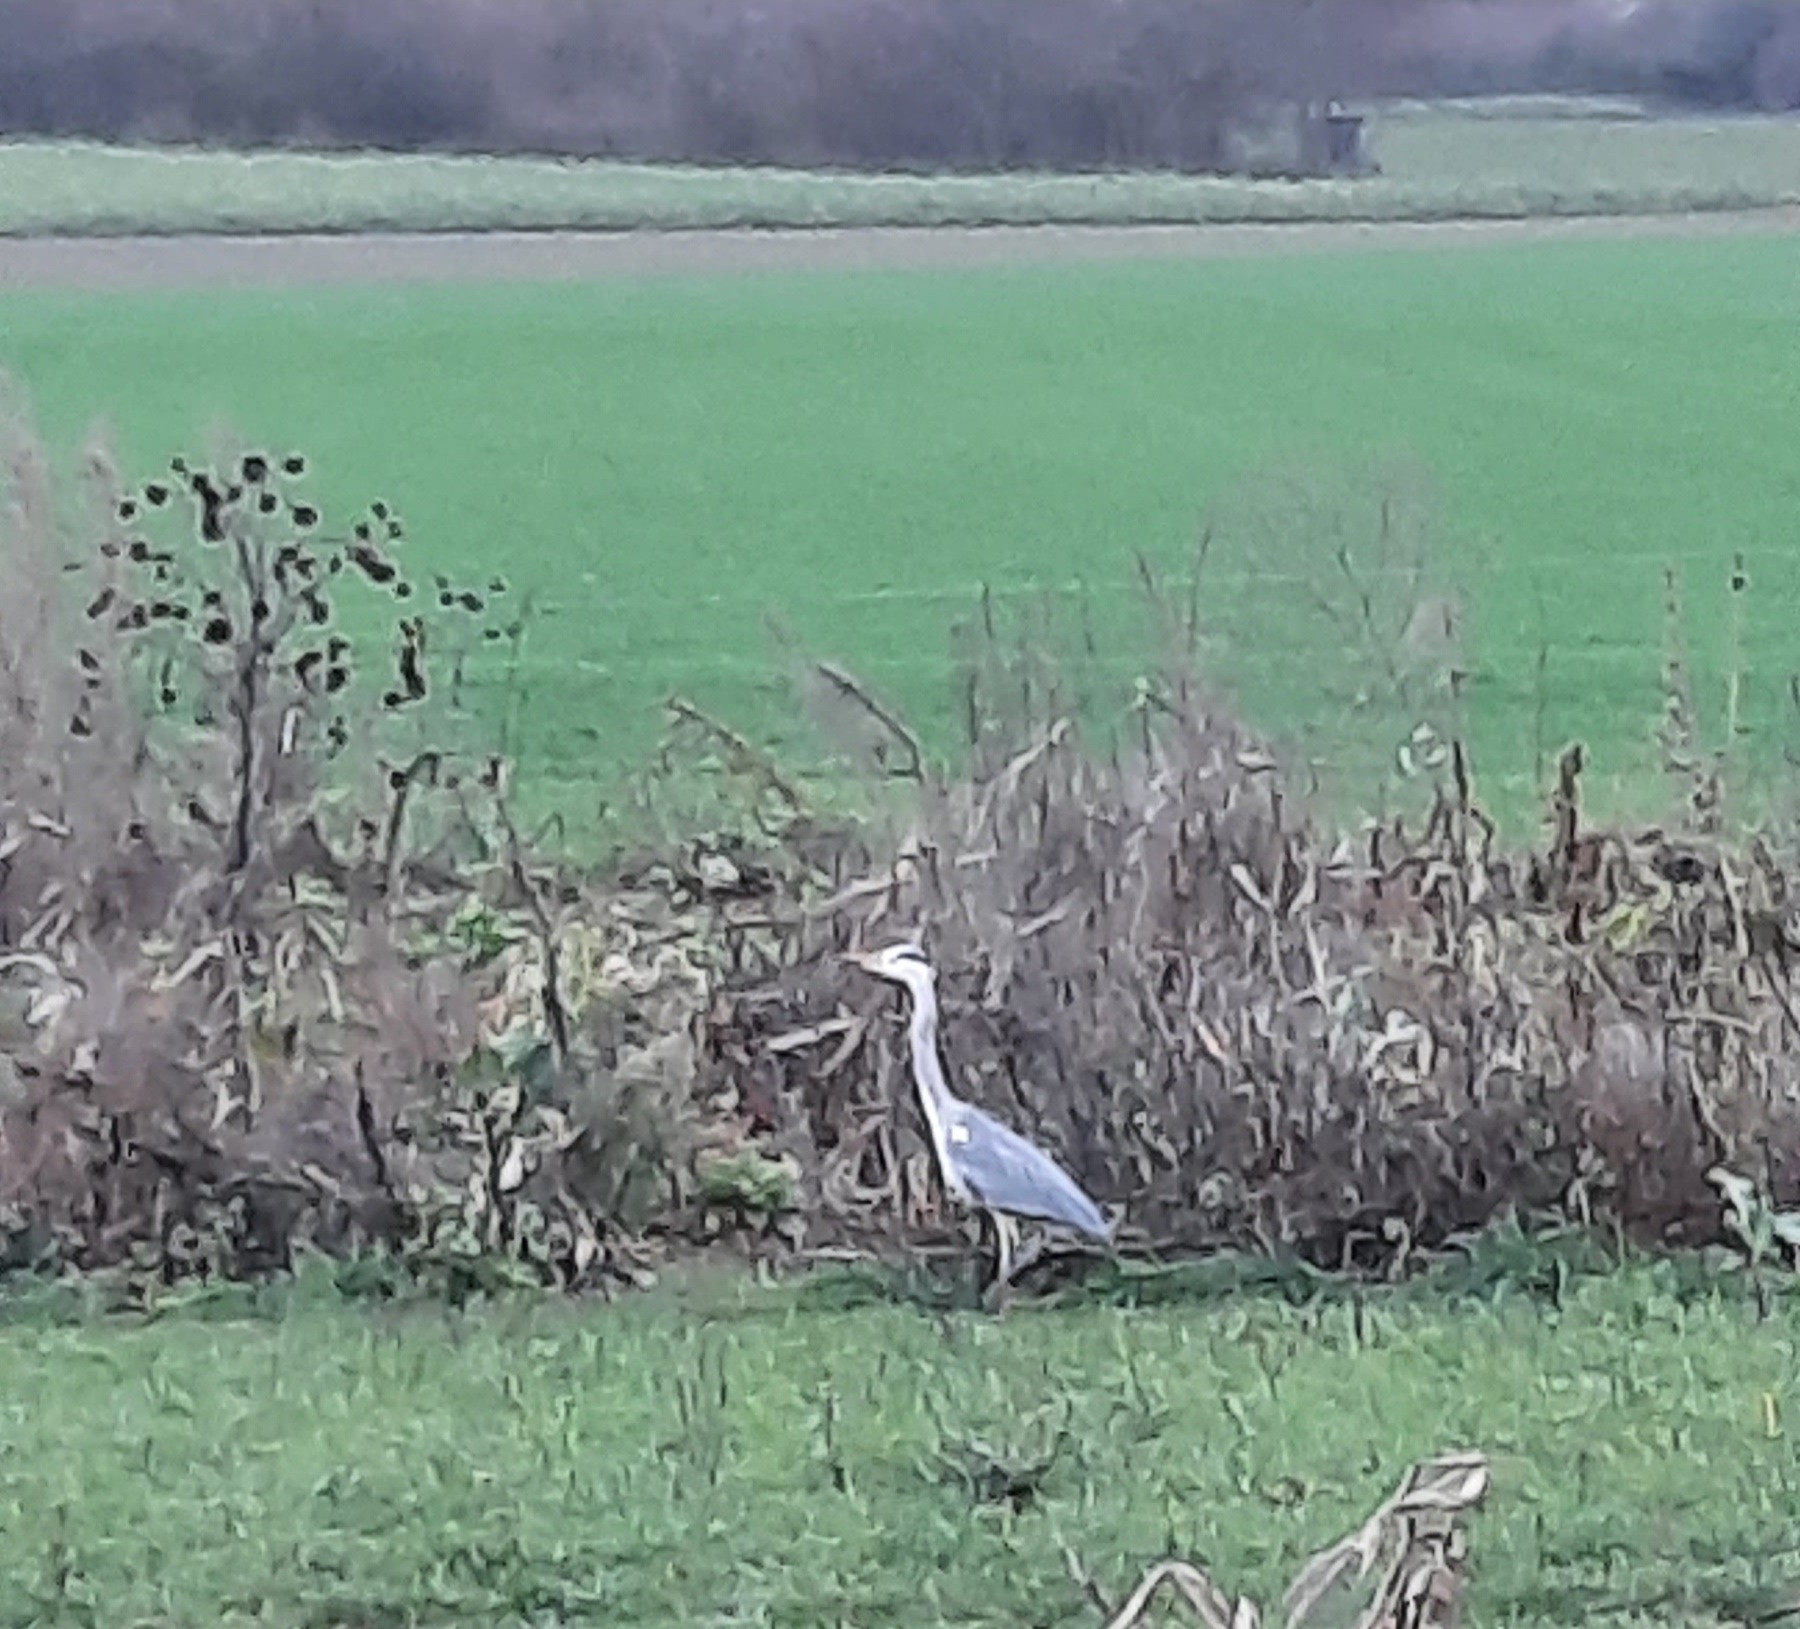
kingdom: Animalia
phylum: Chordata
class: Aves
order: Pelecaniformes
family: Ardeidae
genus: Ardea
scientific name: Ardea cinerea
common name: Grey heron
